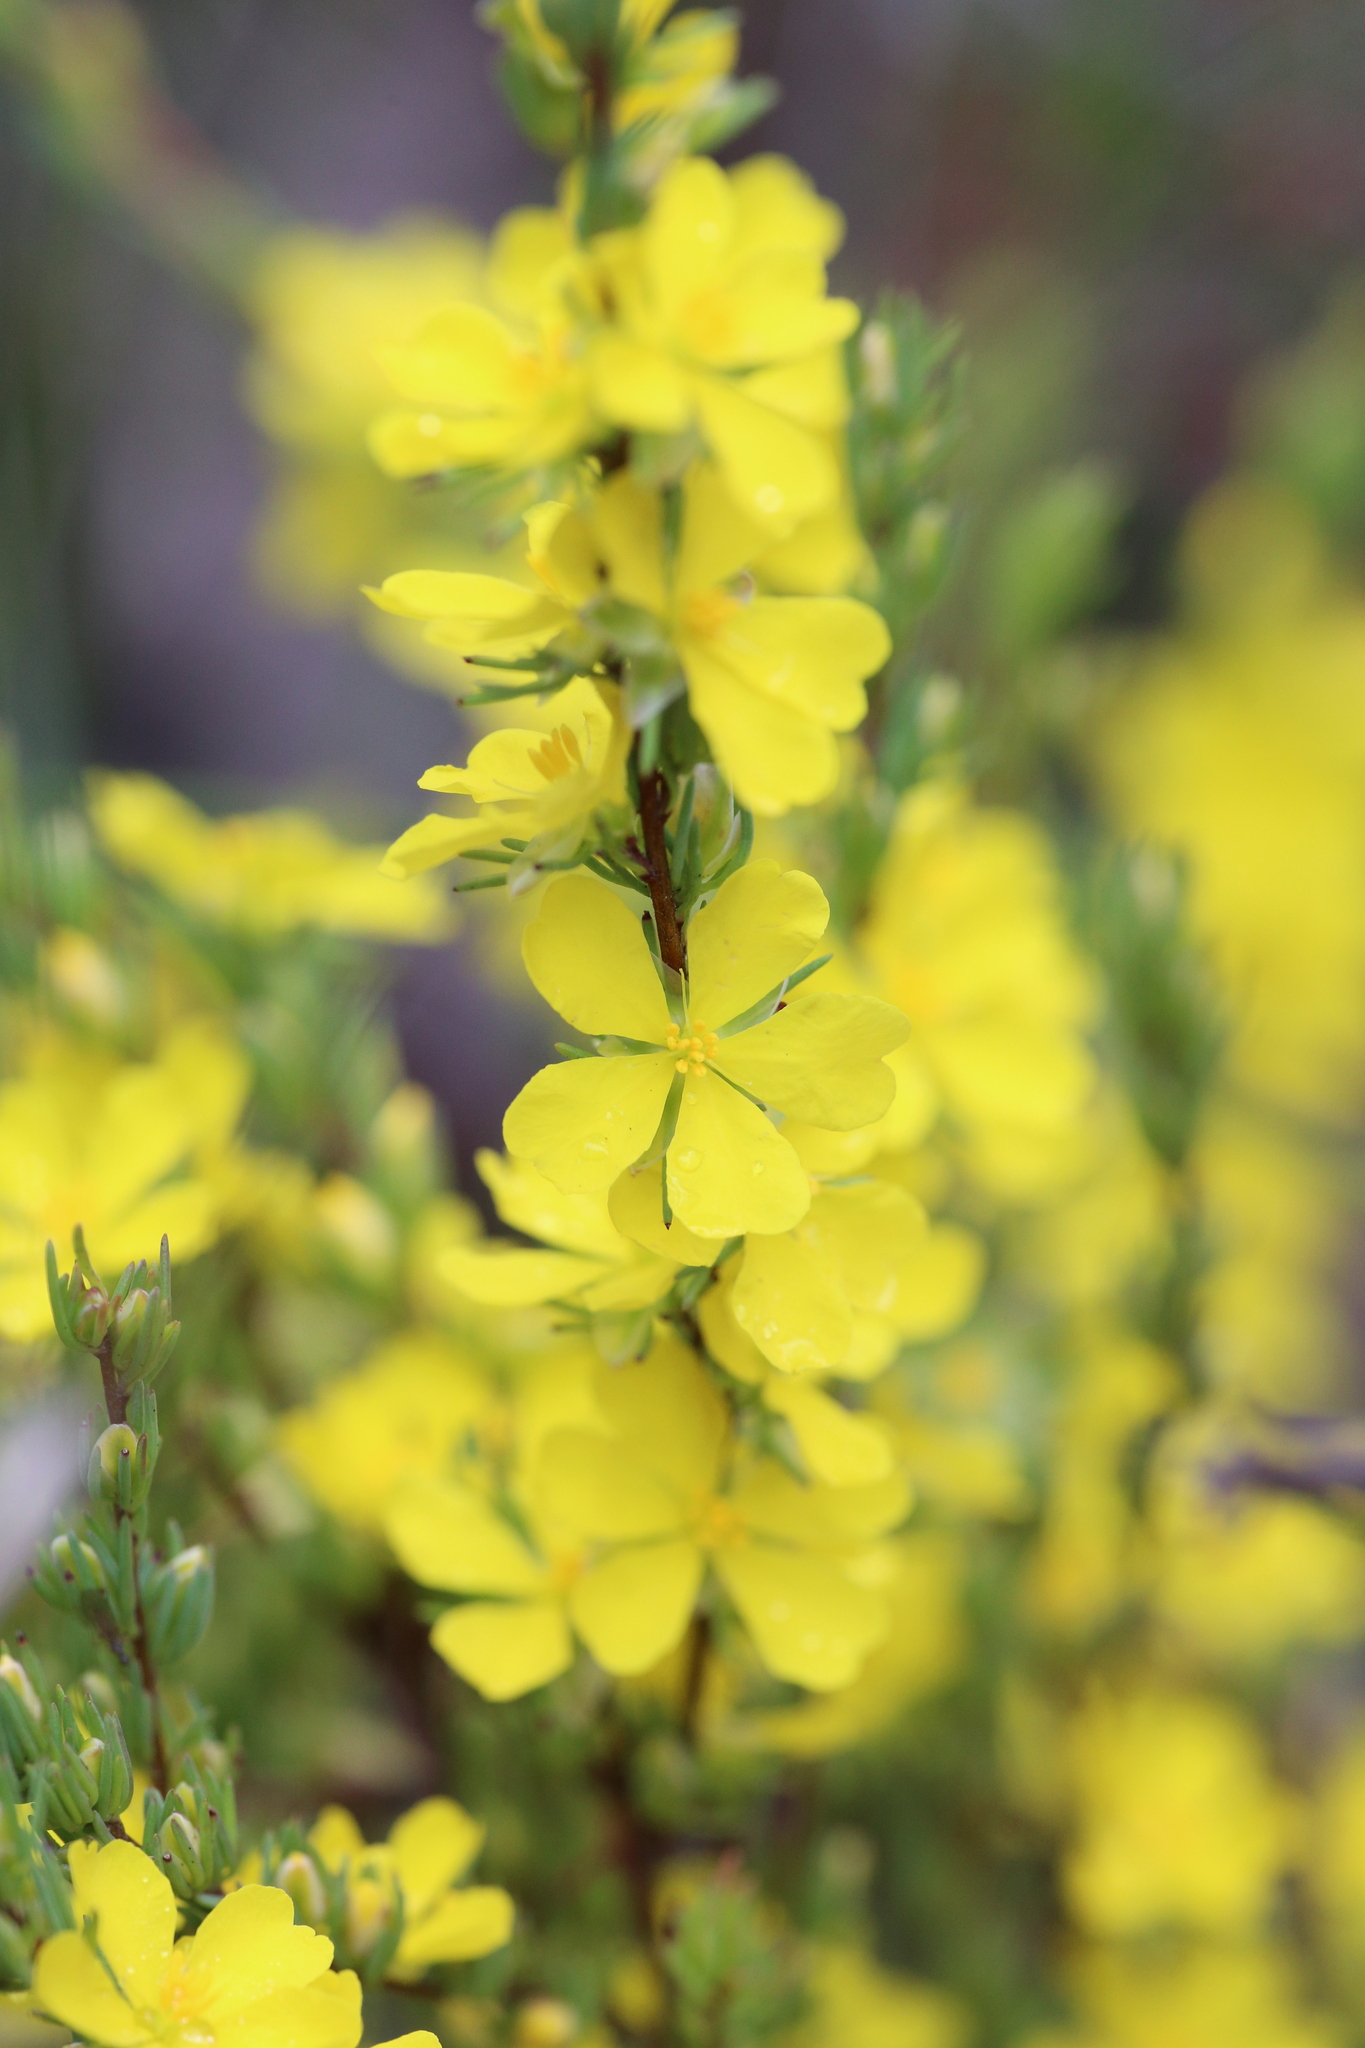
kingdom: Plantae
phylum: Tracheophyta
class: Magnoliopsida
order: Dilleniales
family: Dilleniaceae
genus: Hibbertia
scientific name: Hibbertia hemignosta
